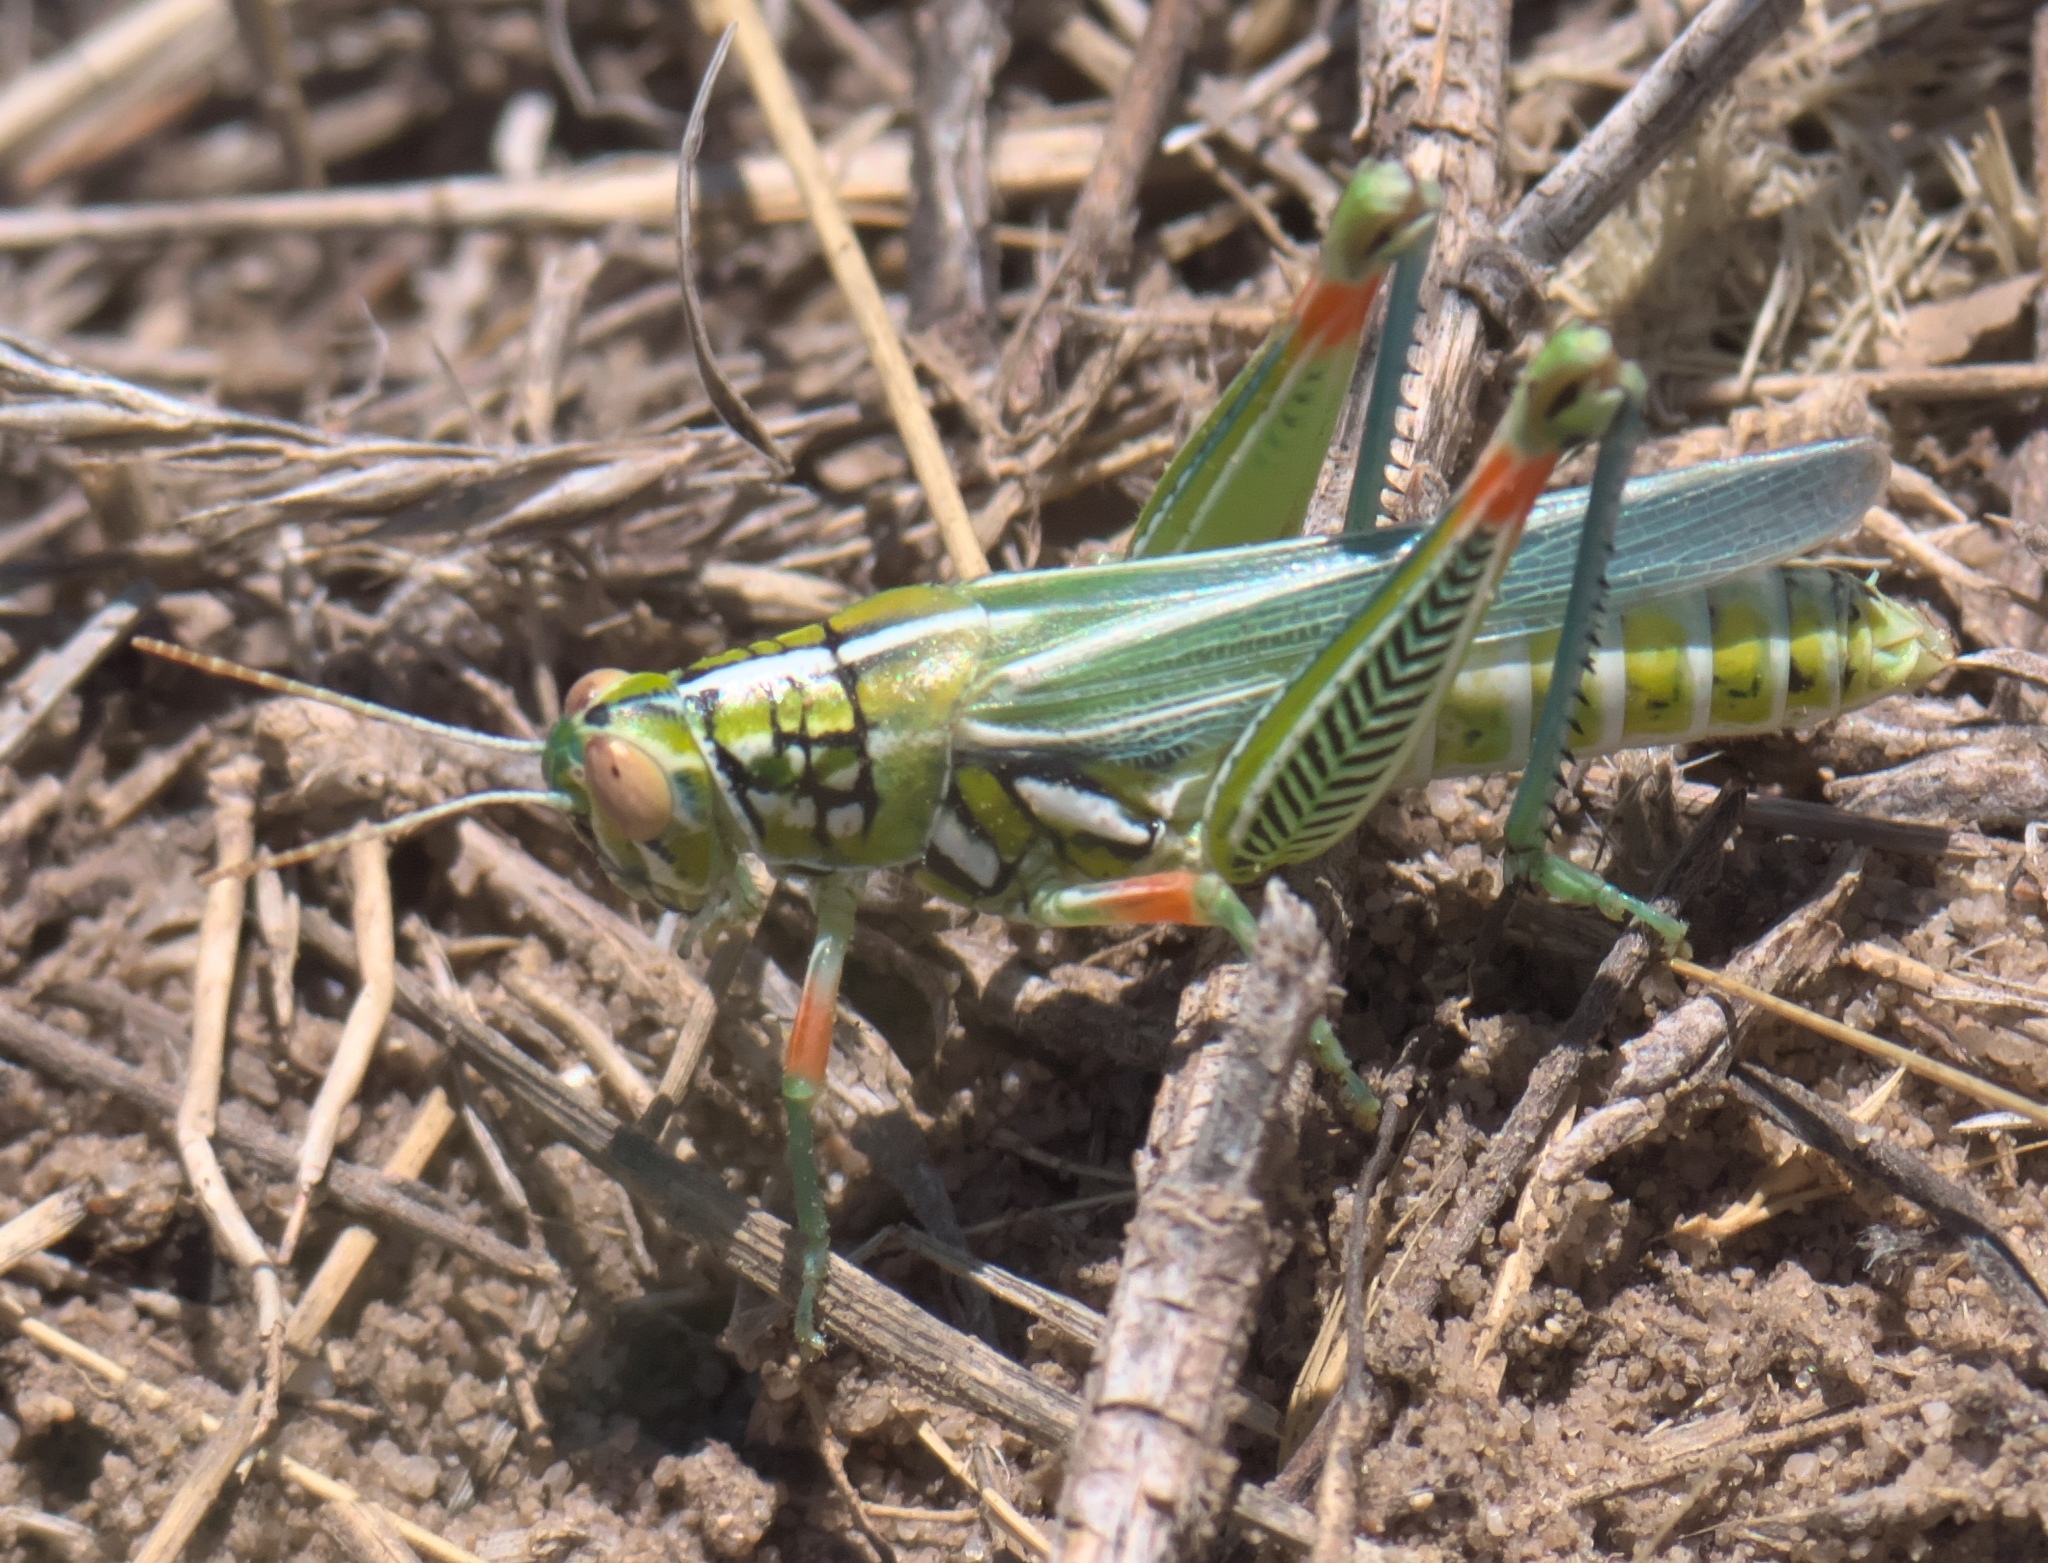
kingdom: Animalia
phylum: Arthropoda
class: Insecta
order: Orthoptera
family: Acrididae
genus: Hesperotettix
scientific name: Hesperotettix viridis
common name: Meadow purple-striped grasshopper
